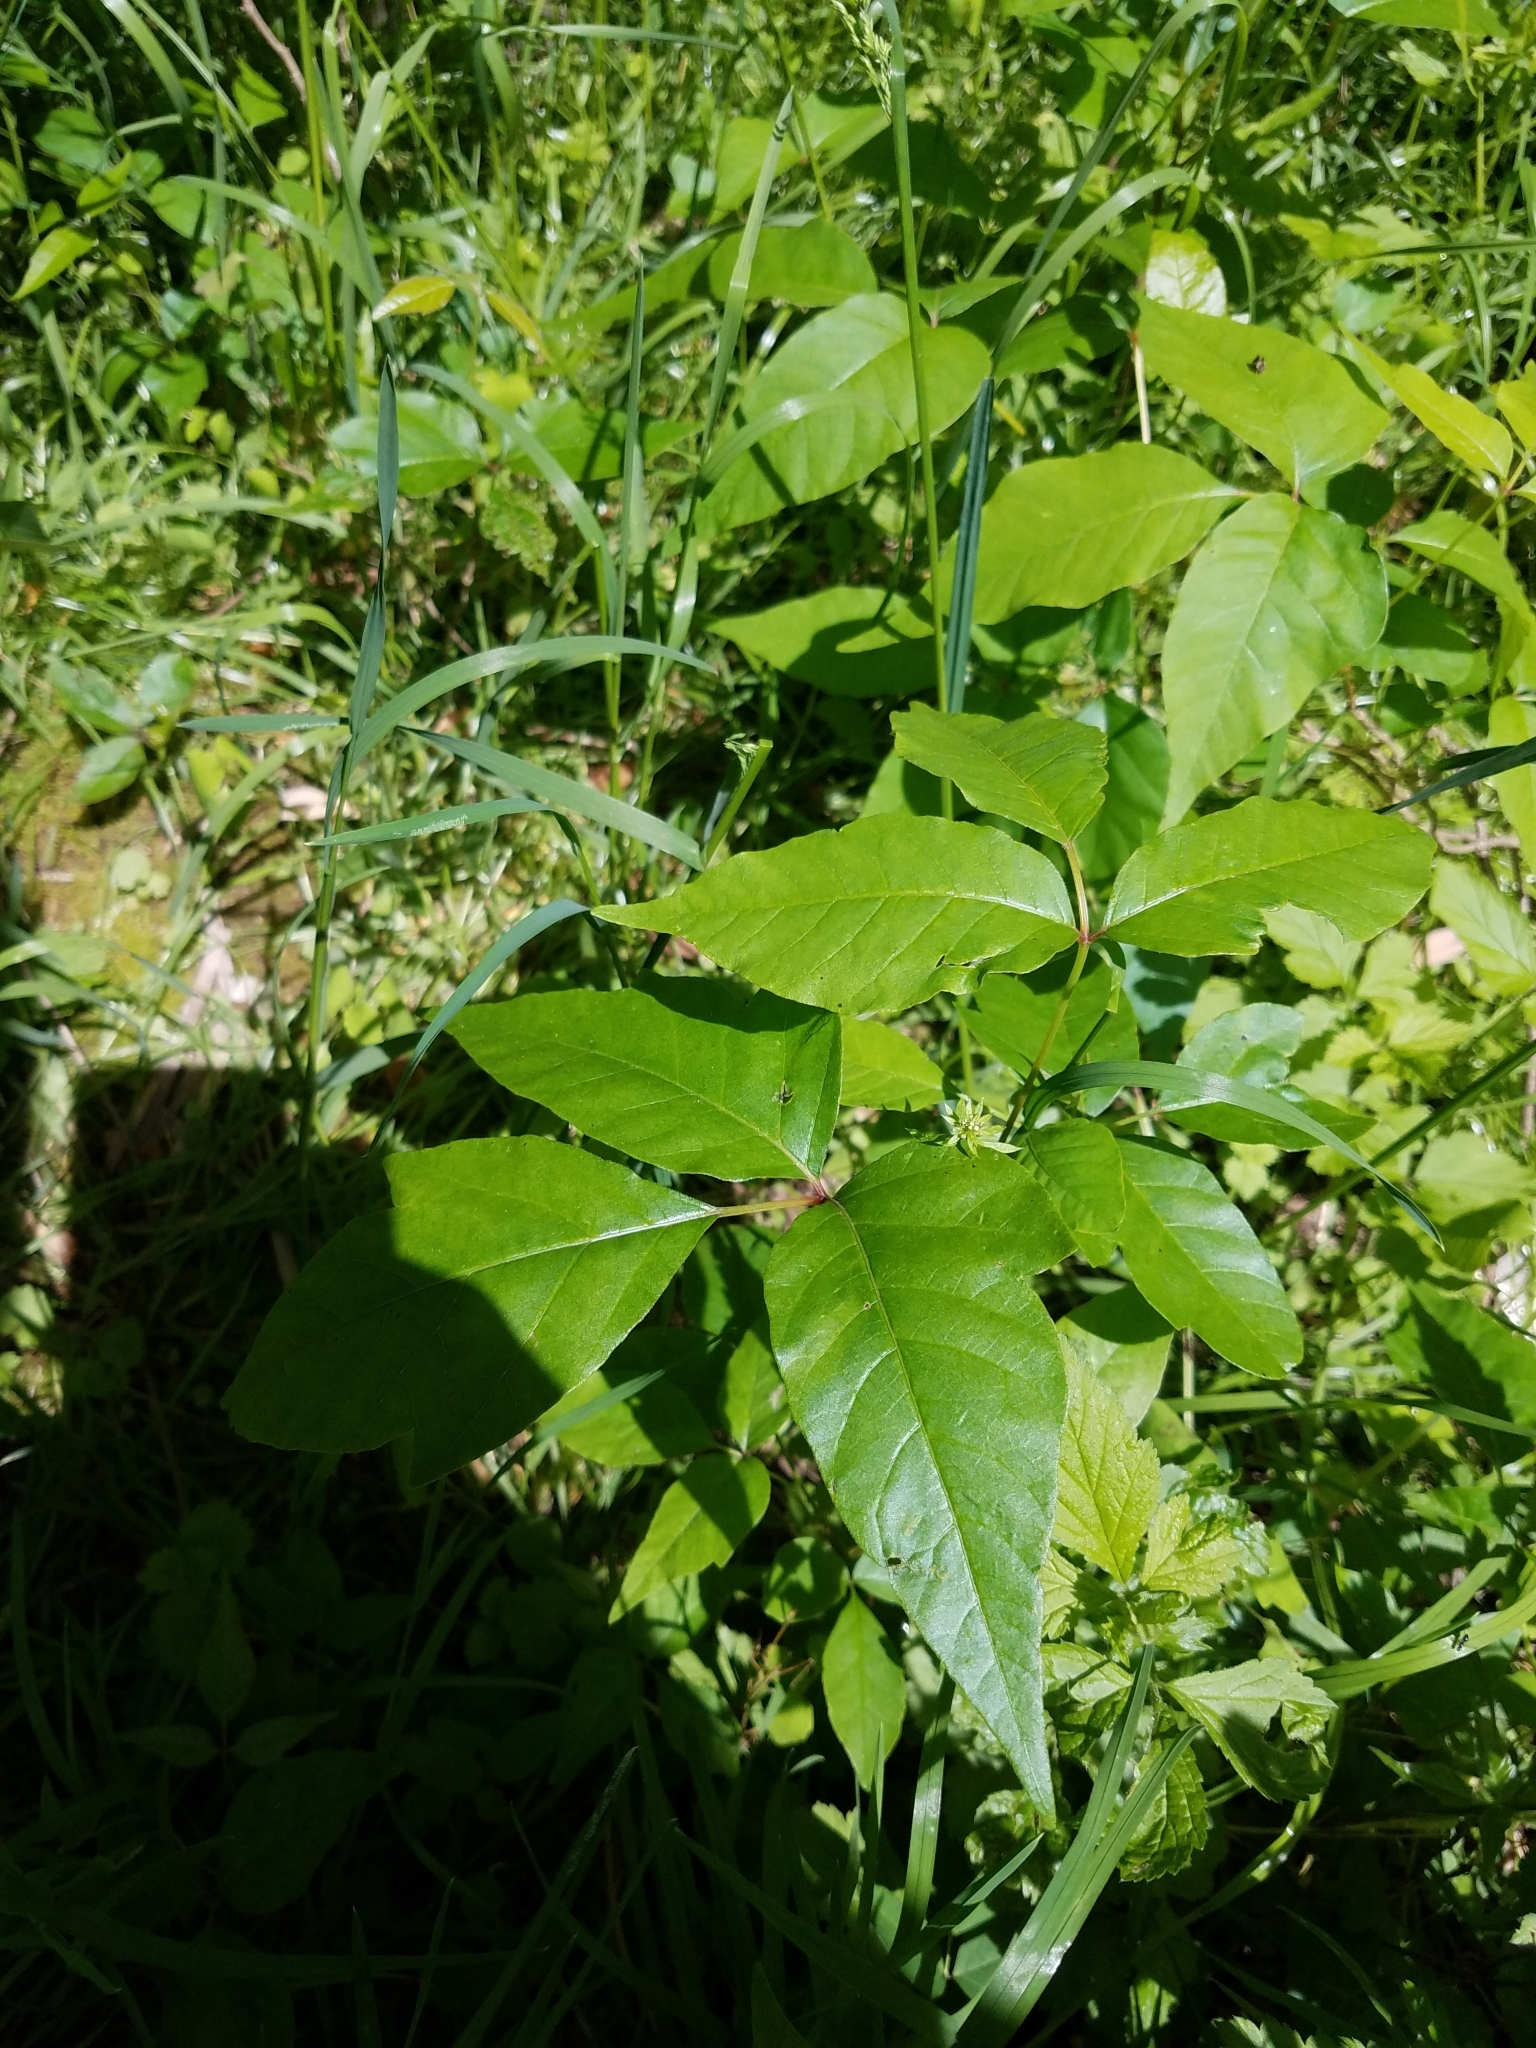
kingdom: Plantae
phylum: Tracheophyta
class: Magnoliopsida
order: Sapindales
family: Anacardiaceae
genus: Toxicodendron
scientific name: Toxicodendron radicans
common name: Poison ivy
